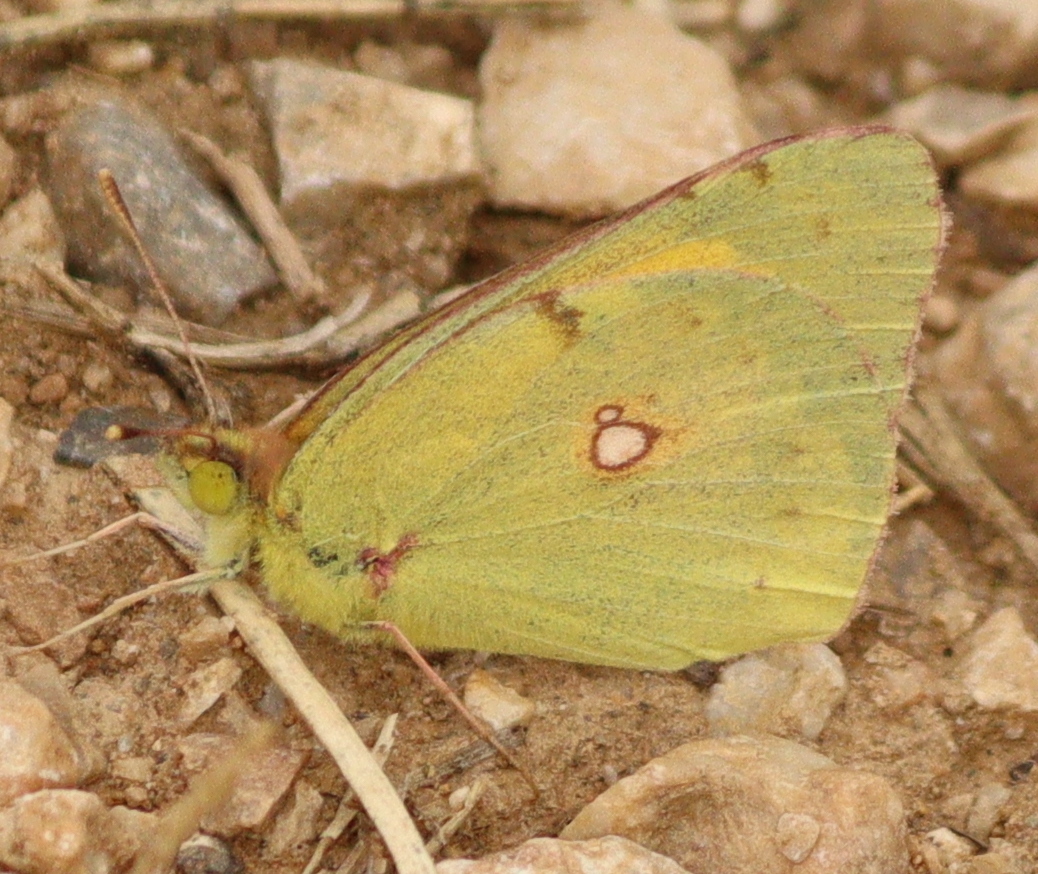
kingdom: Animalia
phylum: Arthropoda
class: Insecta
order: Lepidoptera
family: Pieridae
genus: Colias
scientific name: Colias croceus
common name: Clouded yellow
